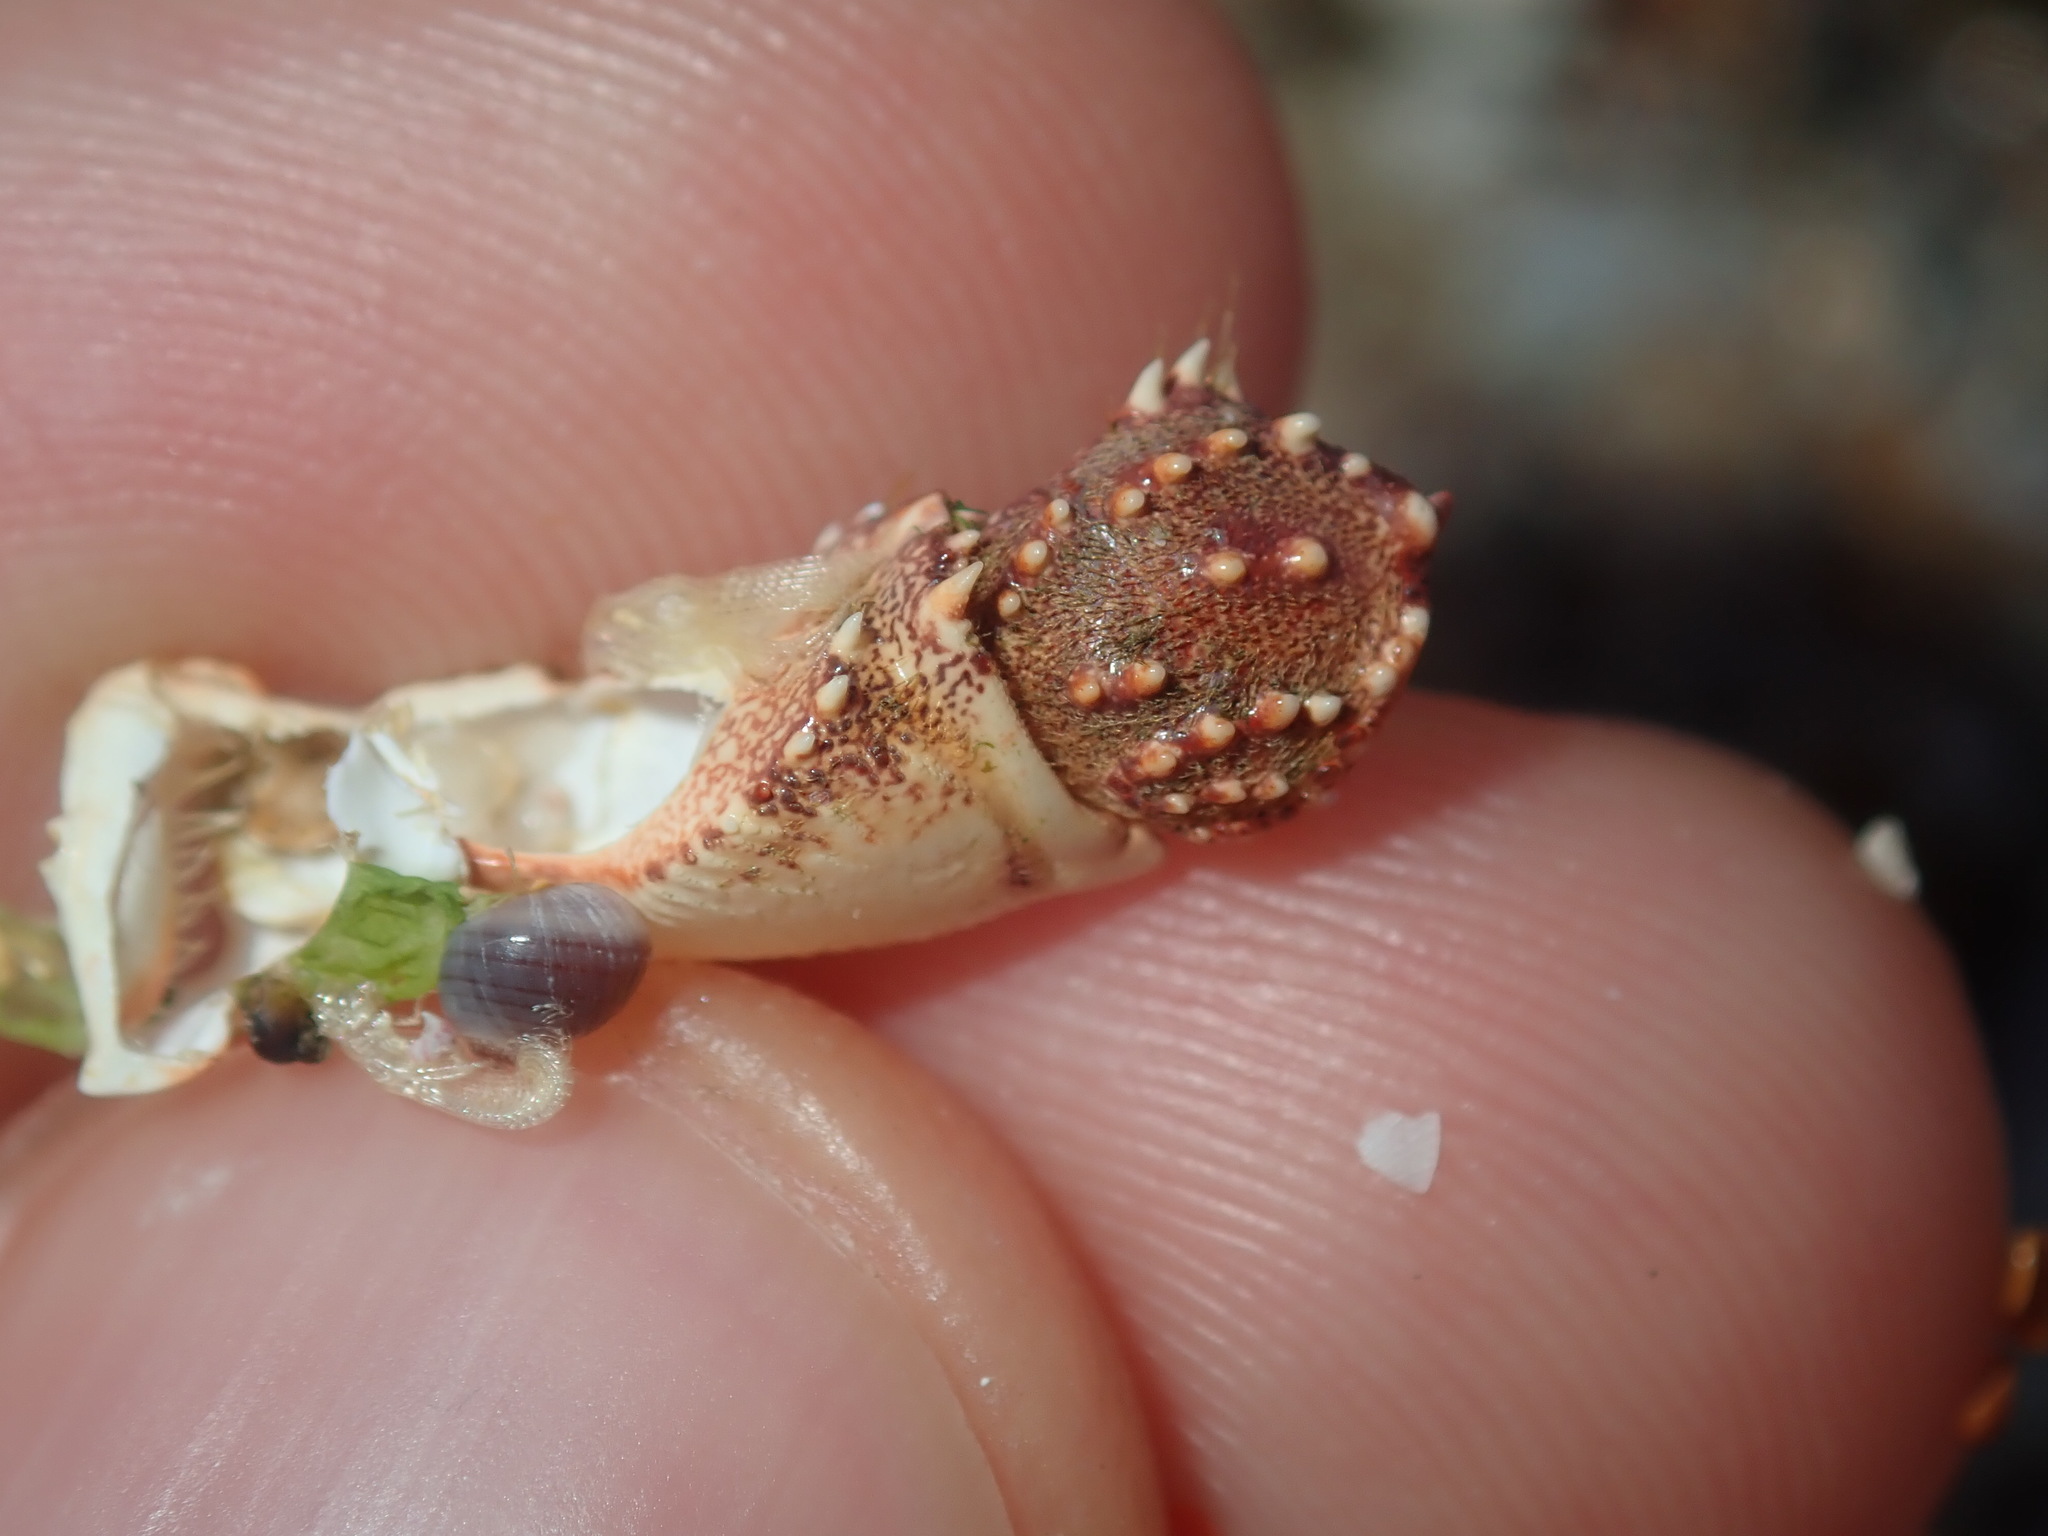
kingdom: Animalia
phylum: Arthropoda
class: Malacostraca
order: Decapoda
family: Plagusiidae
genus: Guinusia
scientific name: Guinusia chabrus
